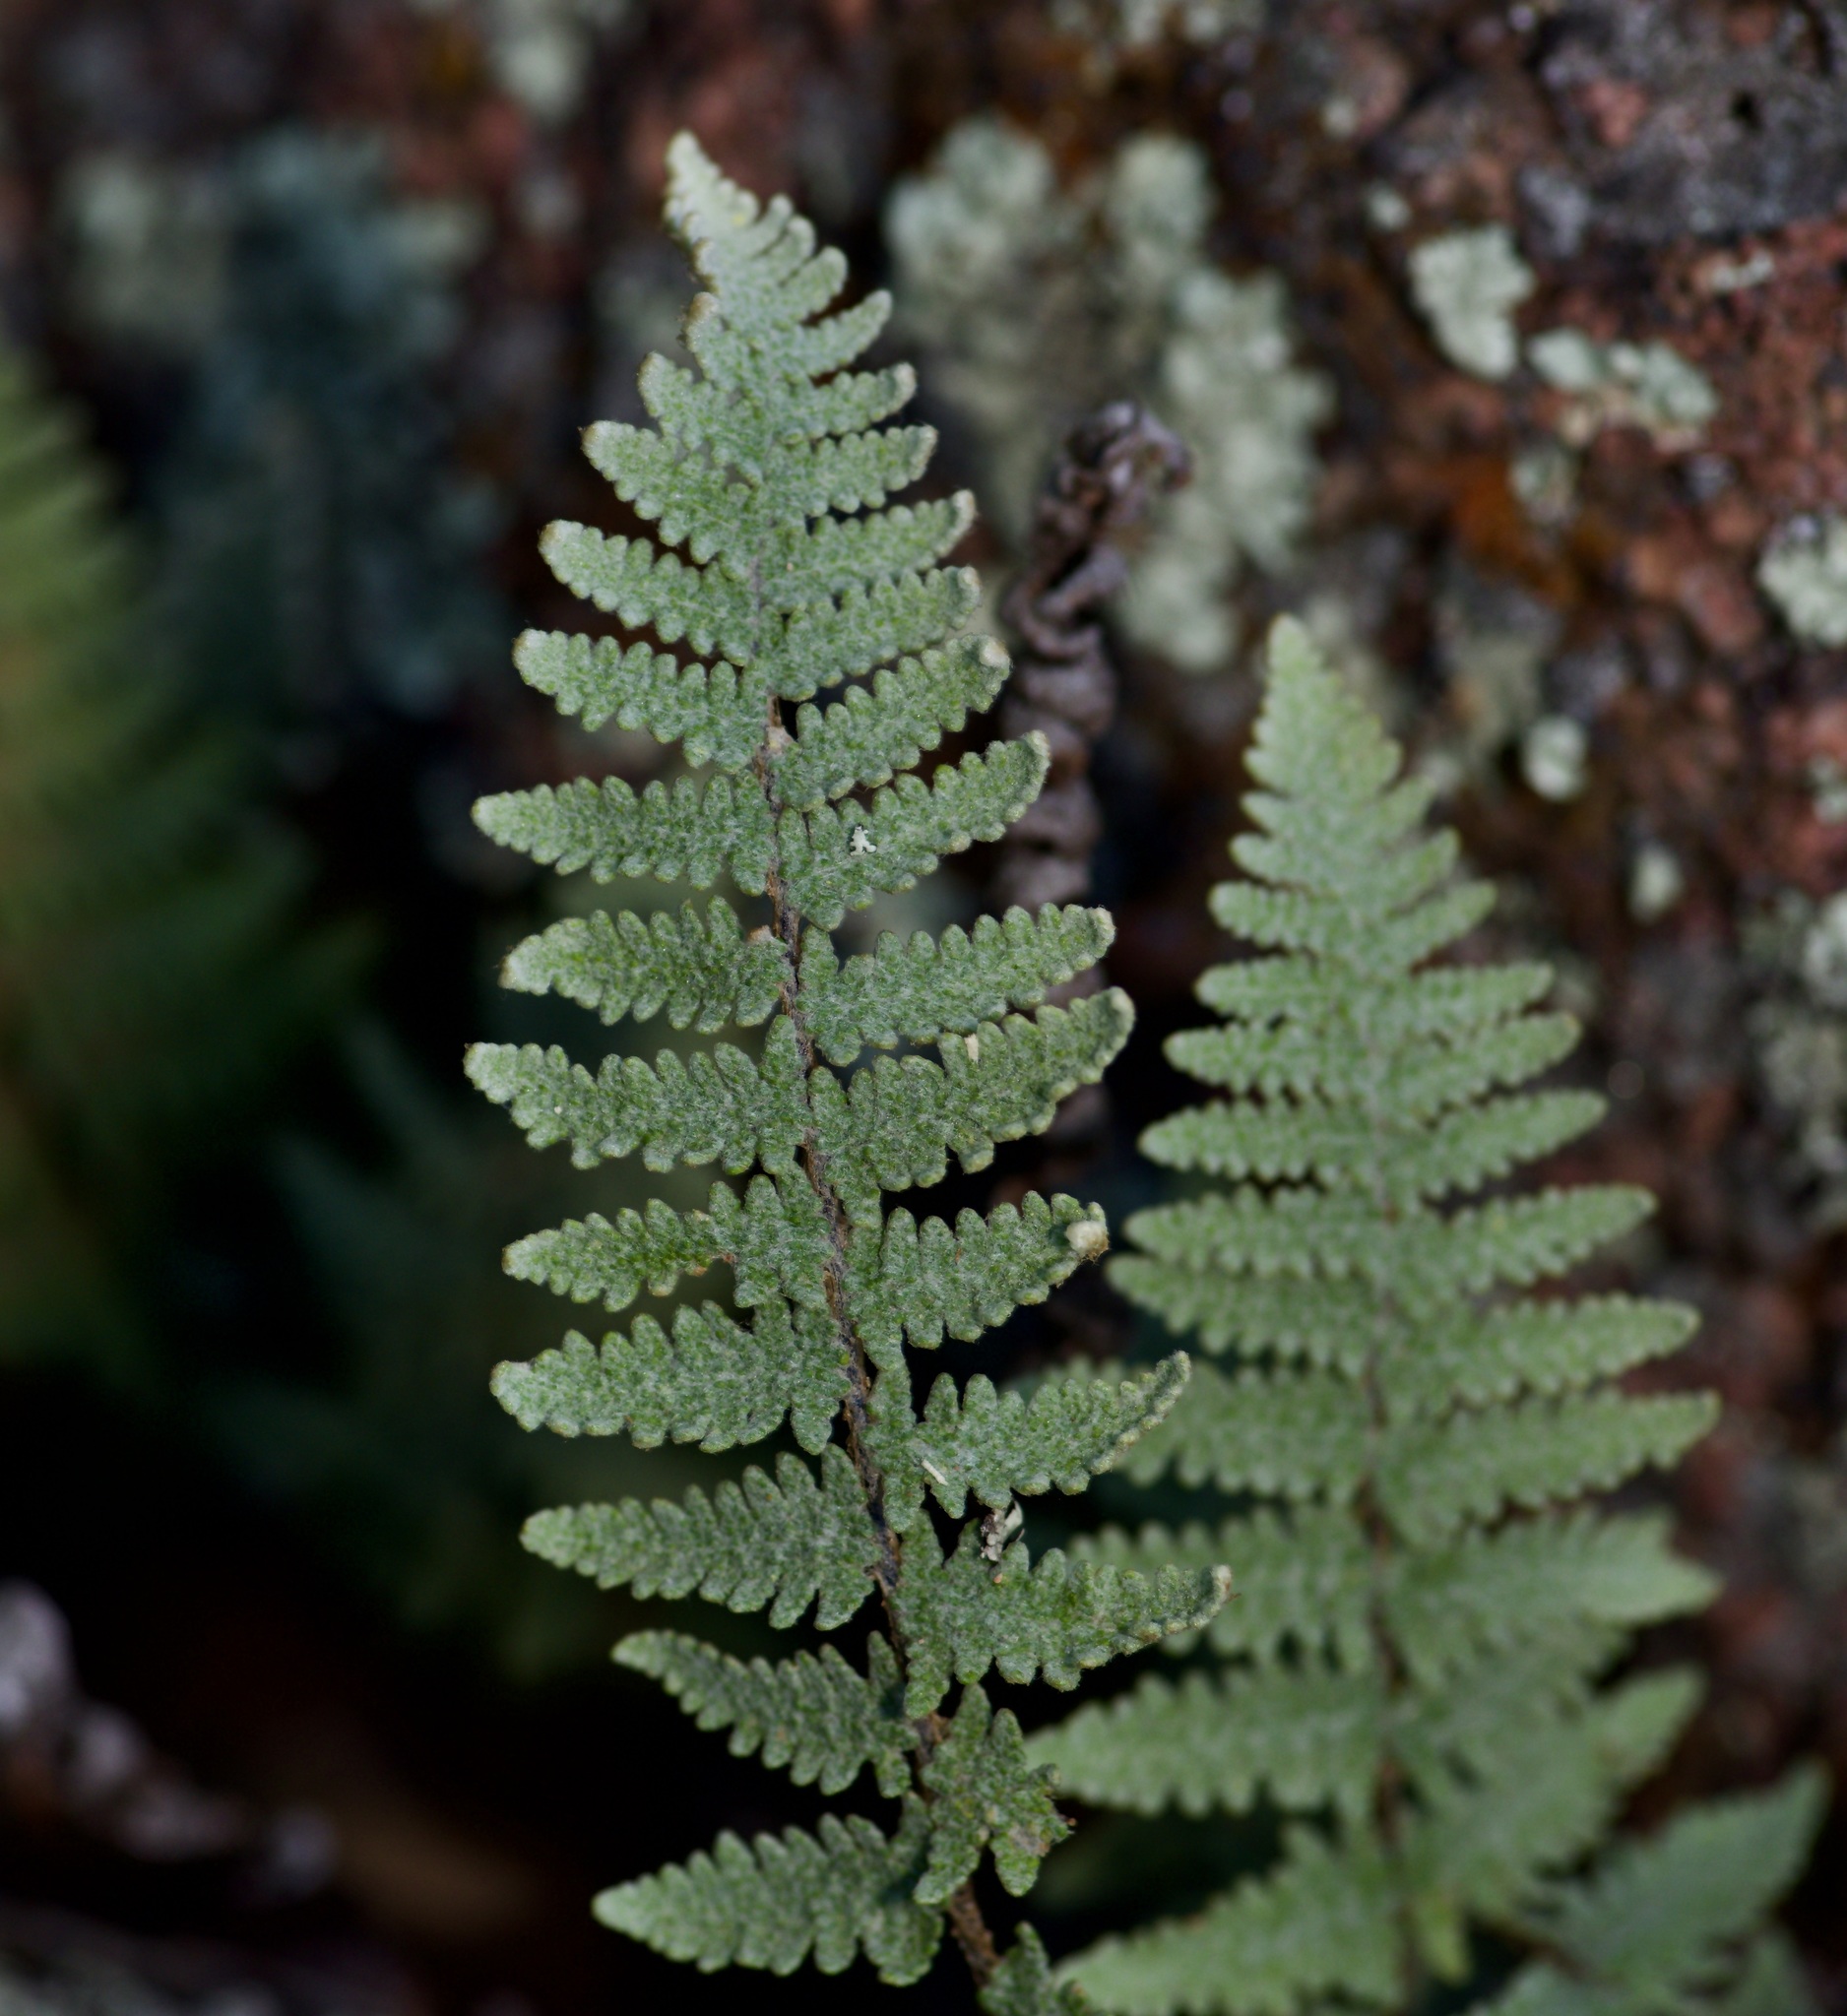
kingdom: Plantae
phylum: Tracheophyta
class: Polypodiopsida
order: Polypodiales
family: Pteridaceae
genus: Myriopteris
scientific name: Myriopteris lindheimeri
